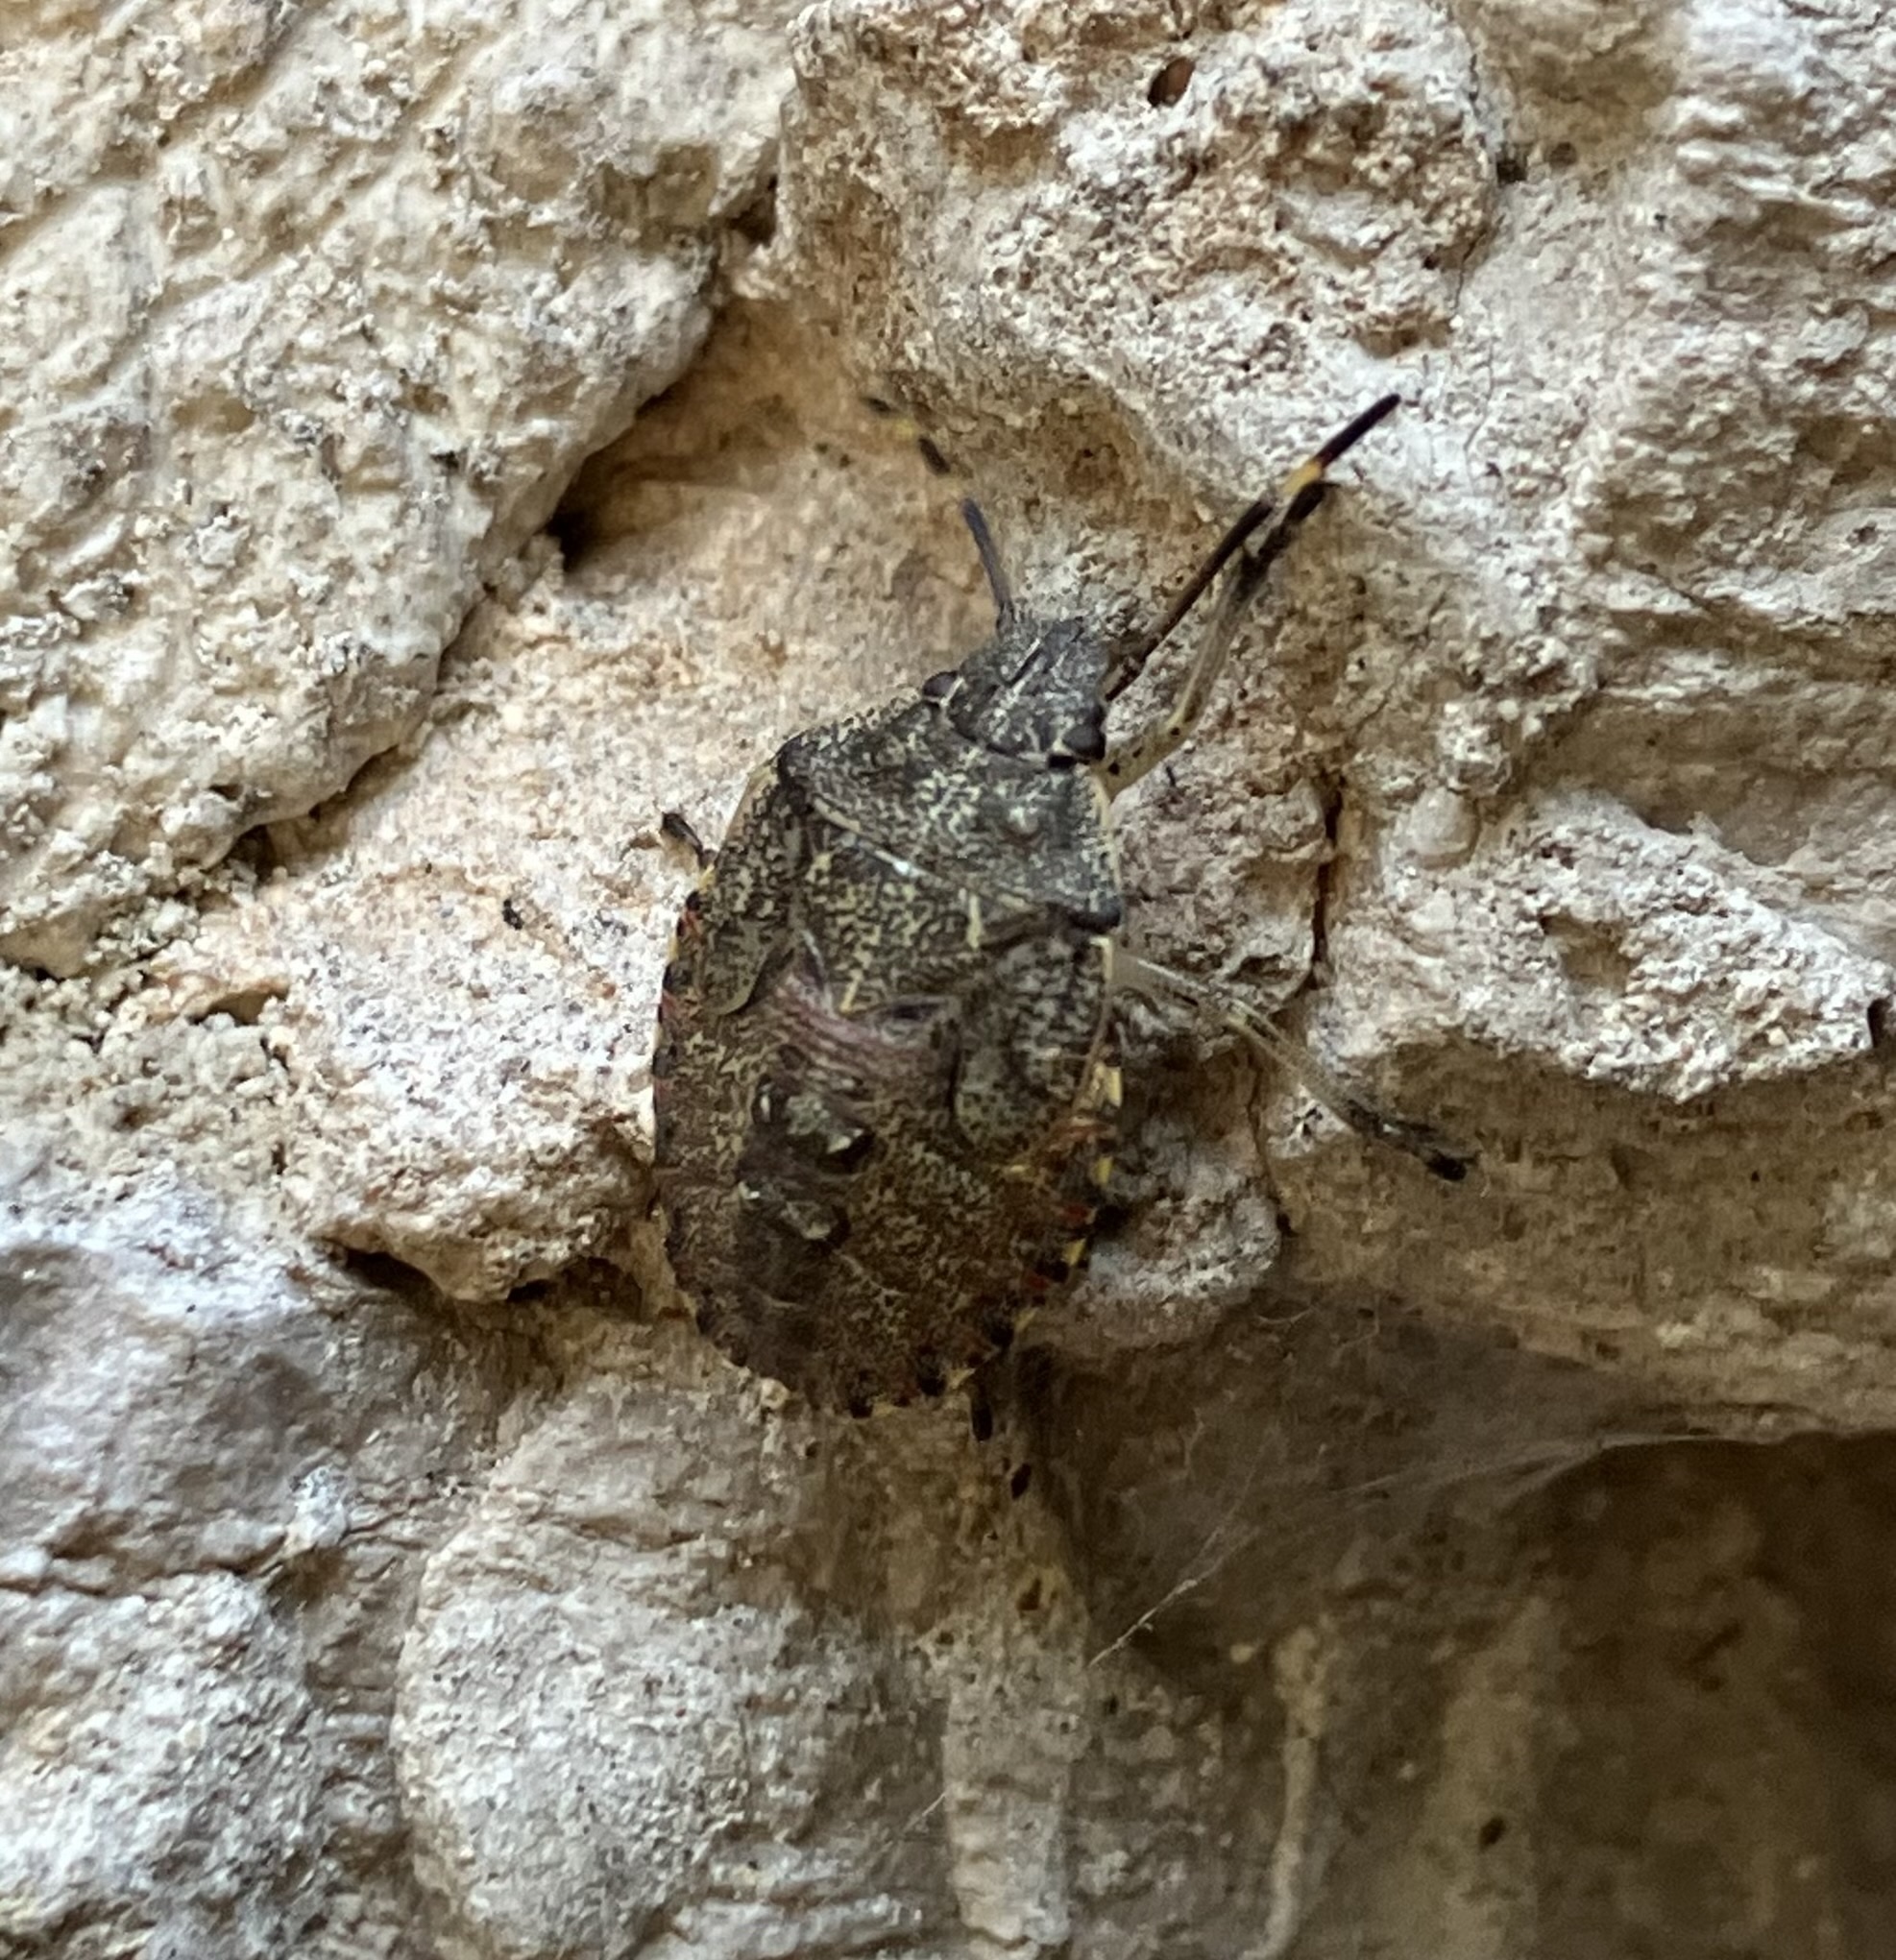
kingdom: Animalia
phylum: Arthropoda
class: Insecta
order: Hemiptera
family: Pentatomidae
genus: Rhaphigaster
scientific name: Rhaphigaster nebulosa
